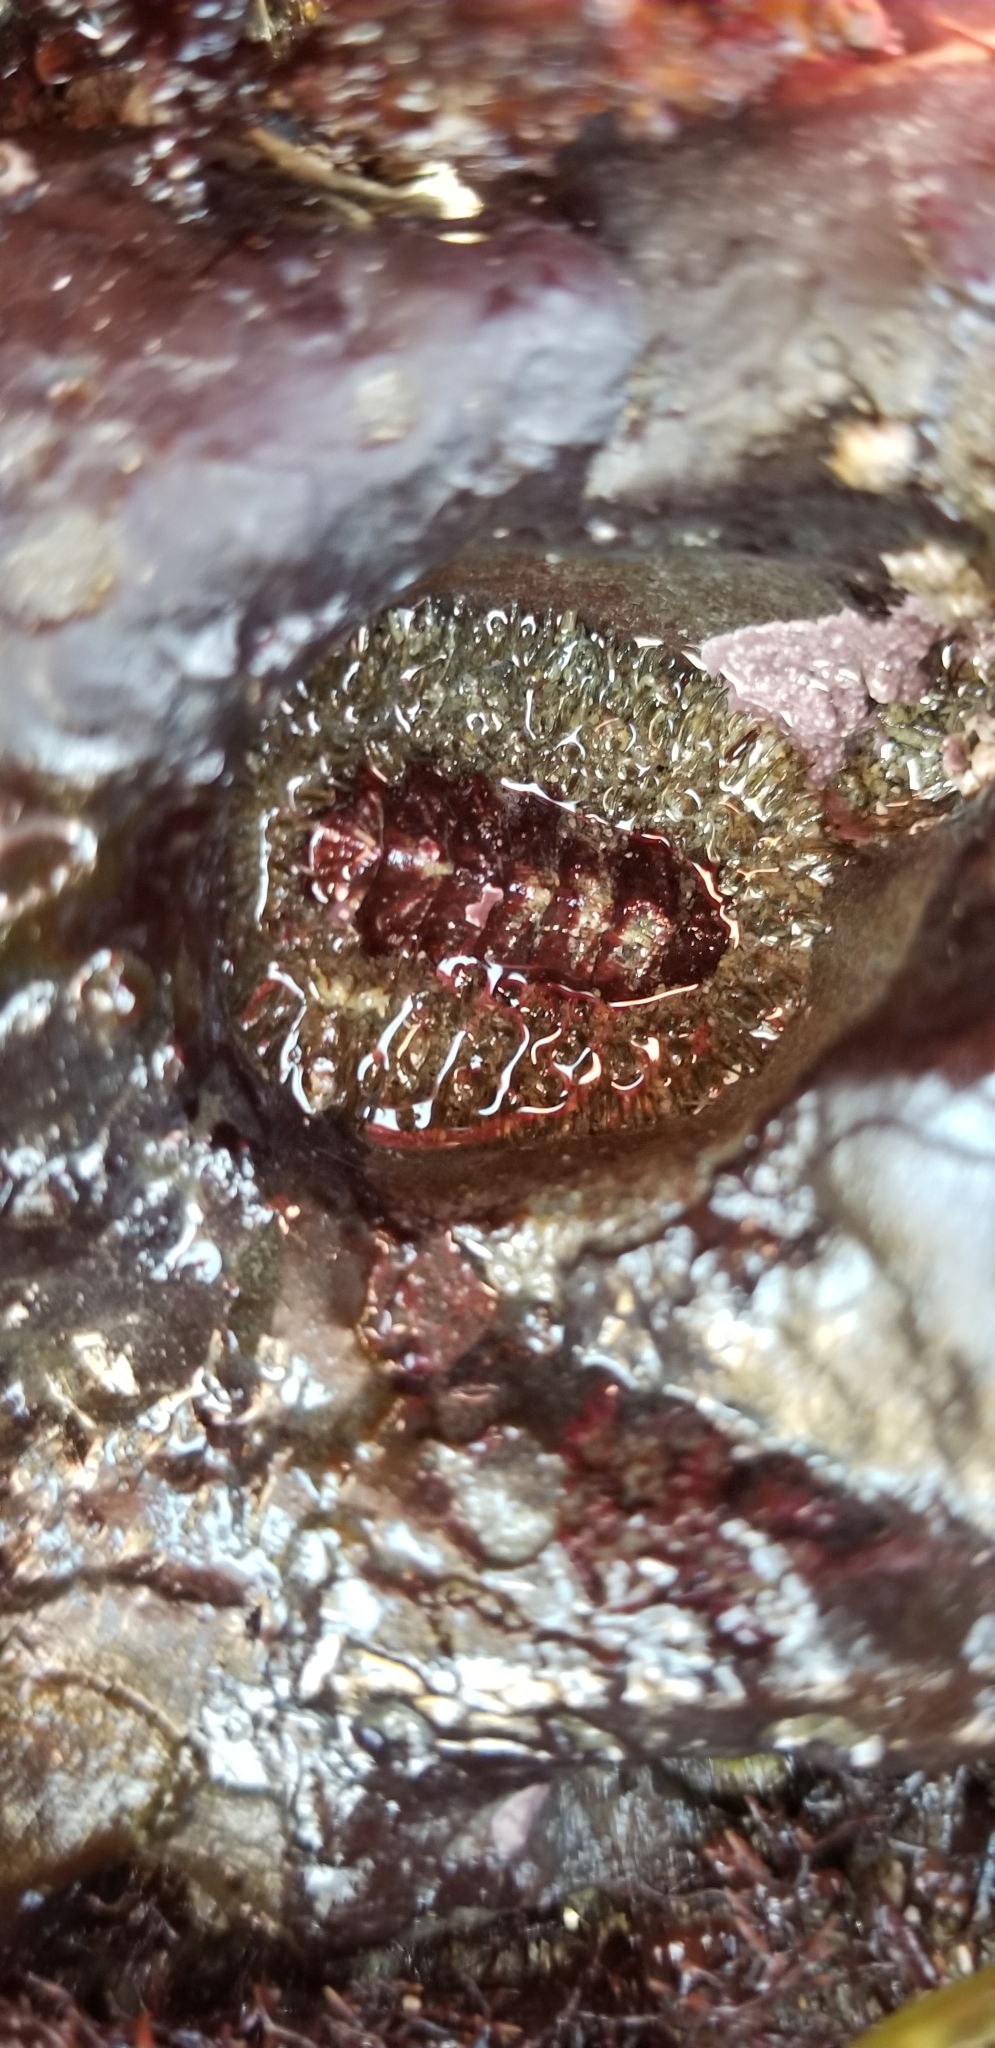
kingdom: Animalia
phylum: Mollusca
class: Polyplacophora
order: Chitonida
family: Mopaliidae
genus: Mopalia
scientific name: Mopalia muscosa
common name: Mossy chiton
